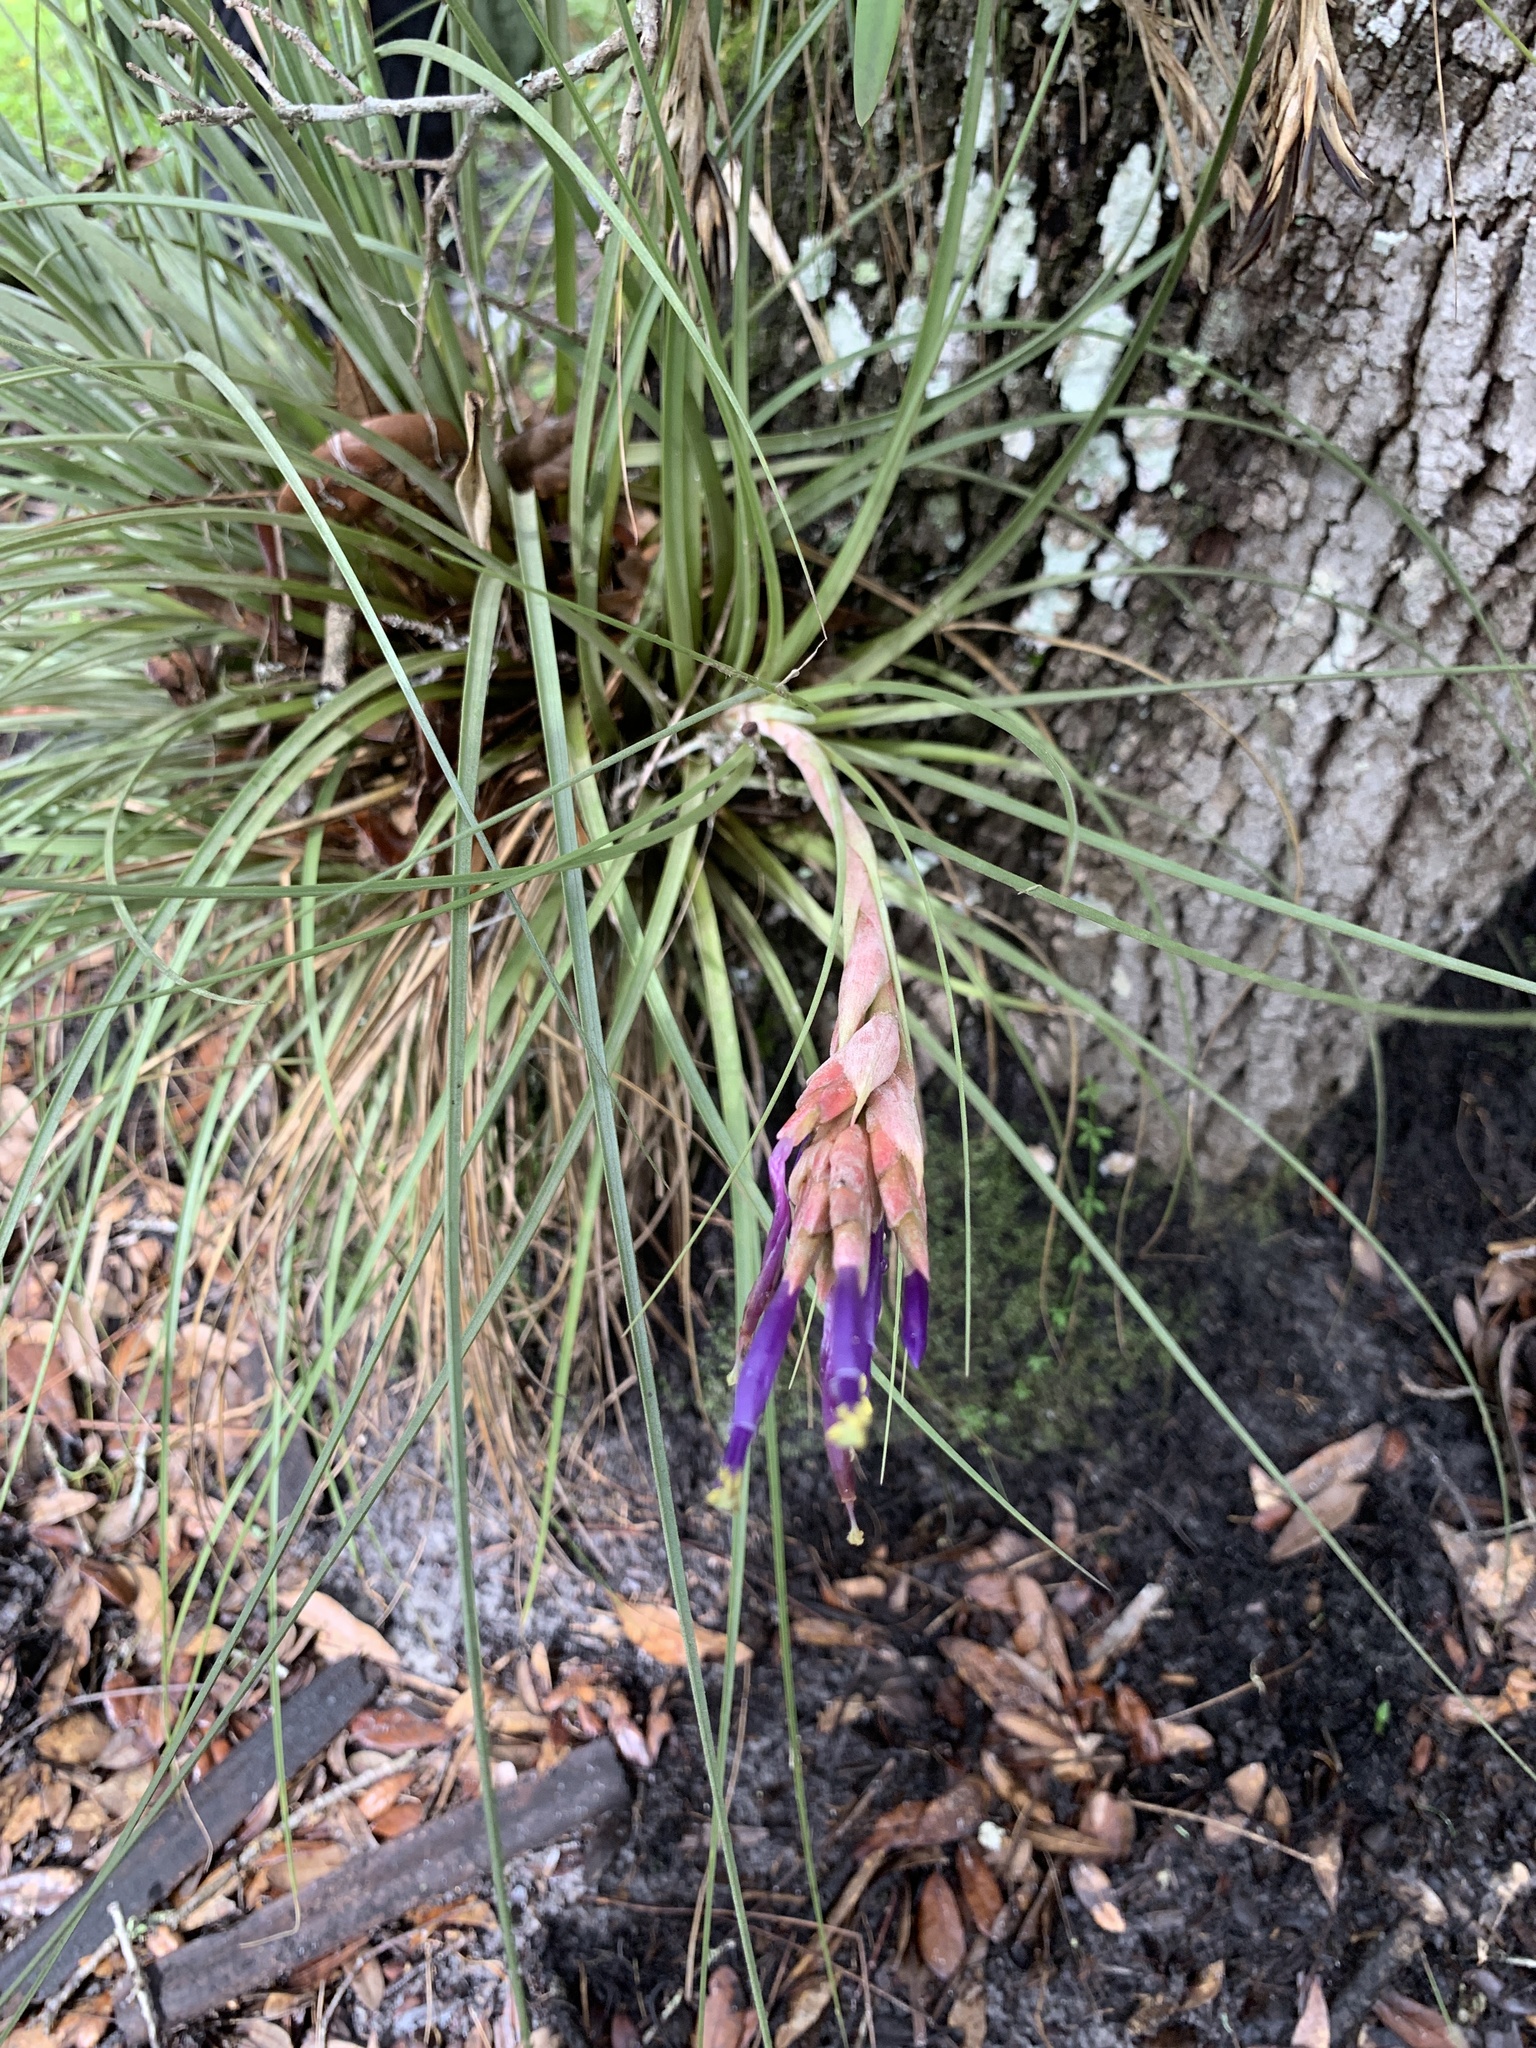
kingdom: Plantae
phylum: Tracheophyta
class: Liliopsida
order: Poales
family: Bromeliaceae
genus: Tillandsia
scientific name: Tillandsia floridana
